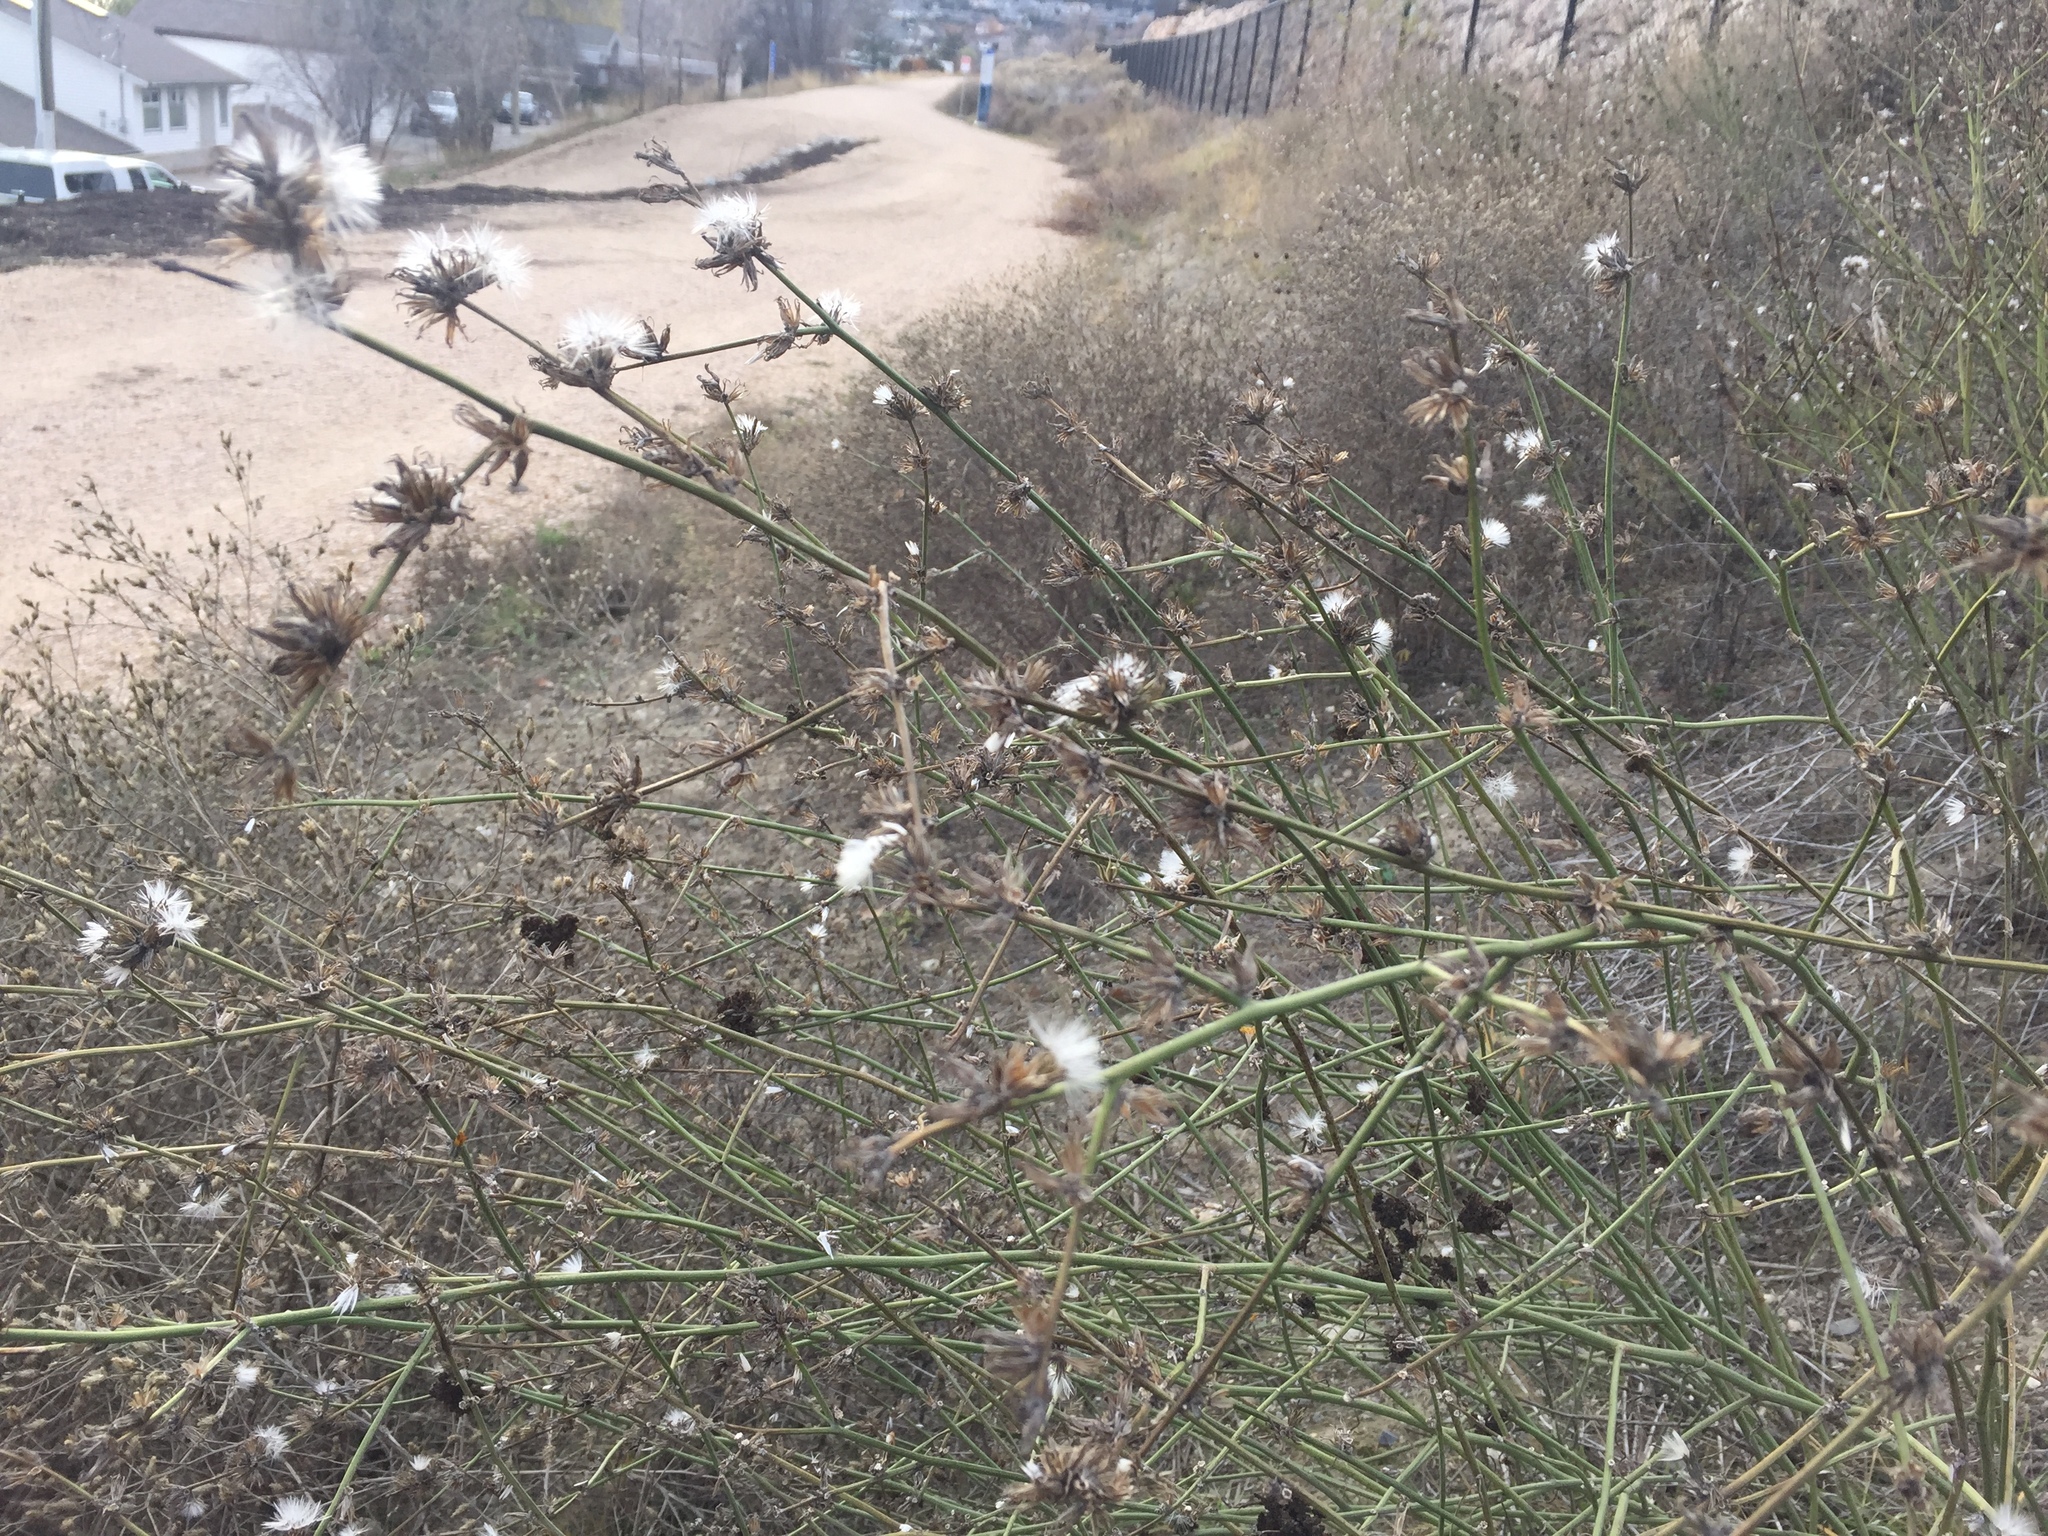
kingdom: Plantae
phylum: Tracheophyta
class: Magnoliopsida
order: Asterales
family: Asteraceae
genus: Chondrilla
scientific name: Chondrilla juncea
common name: Skeleton weed
